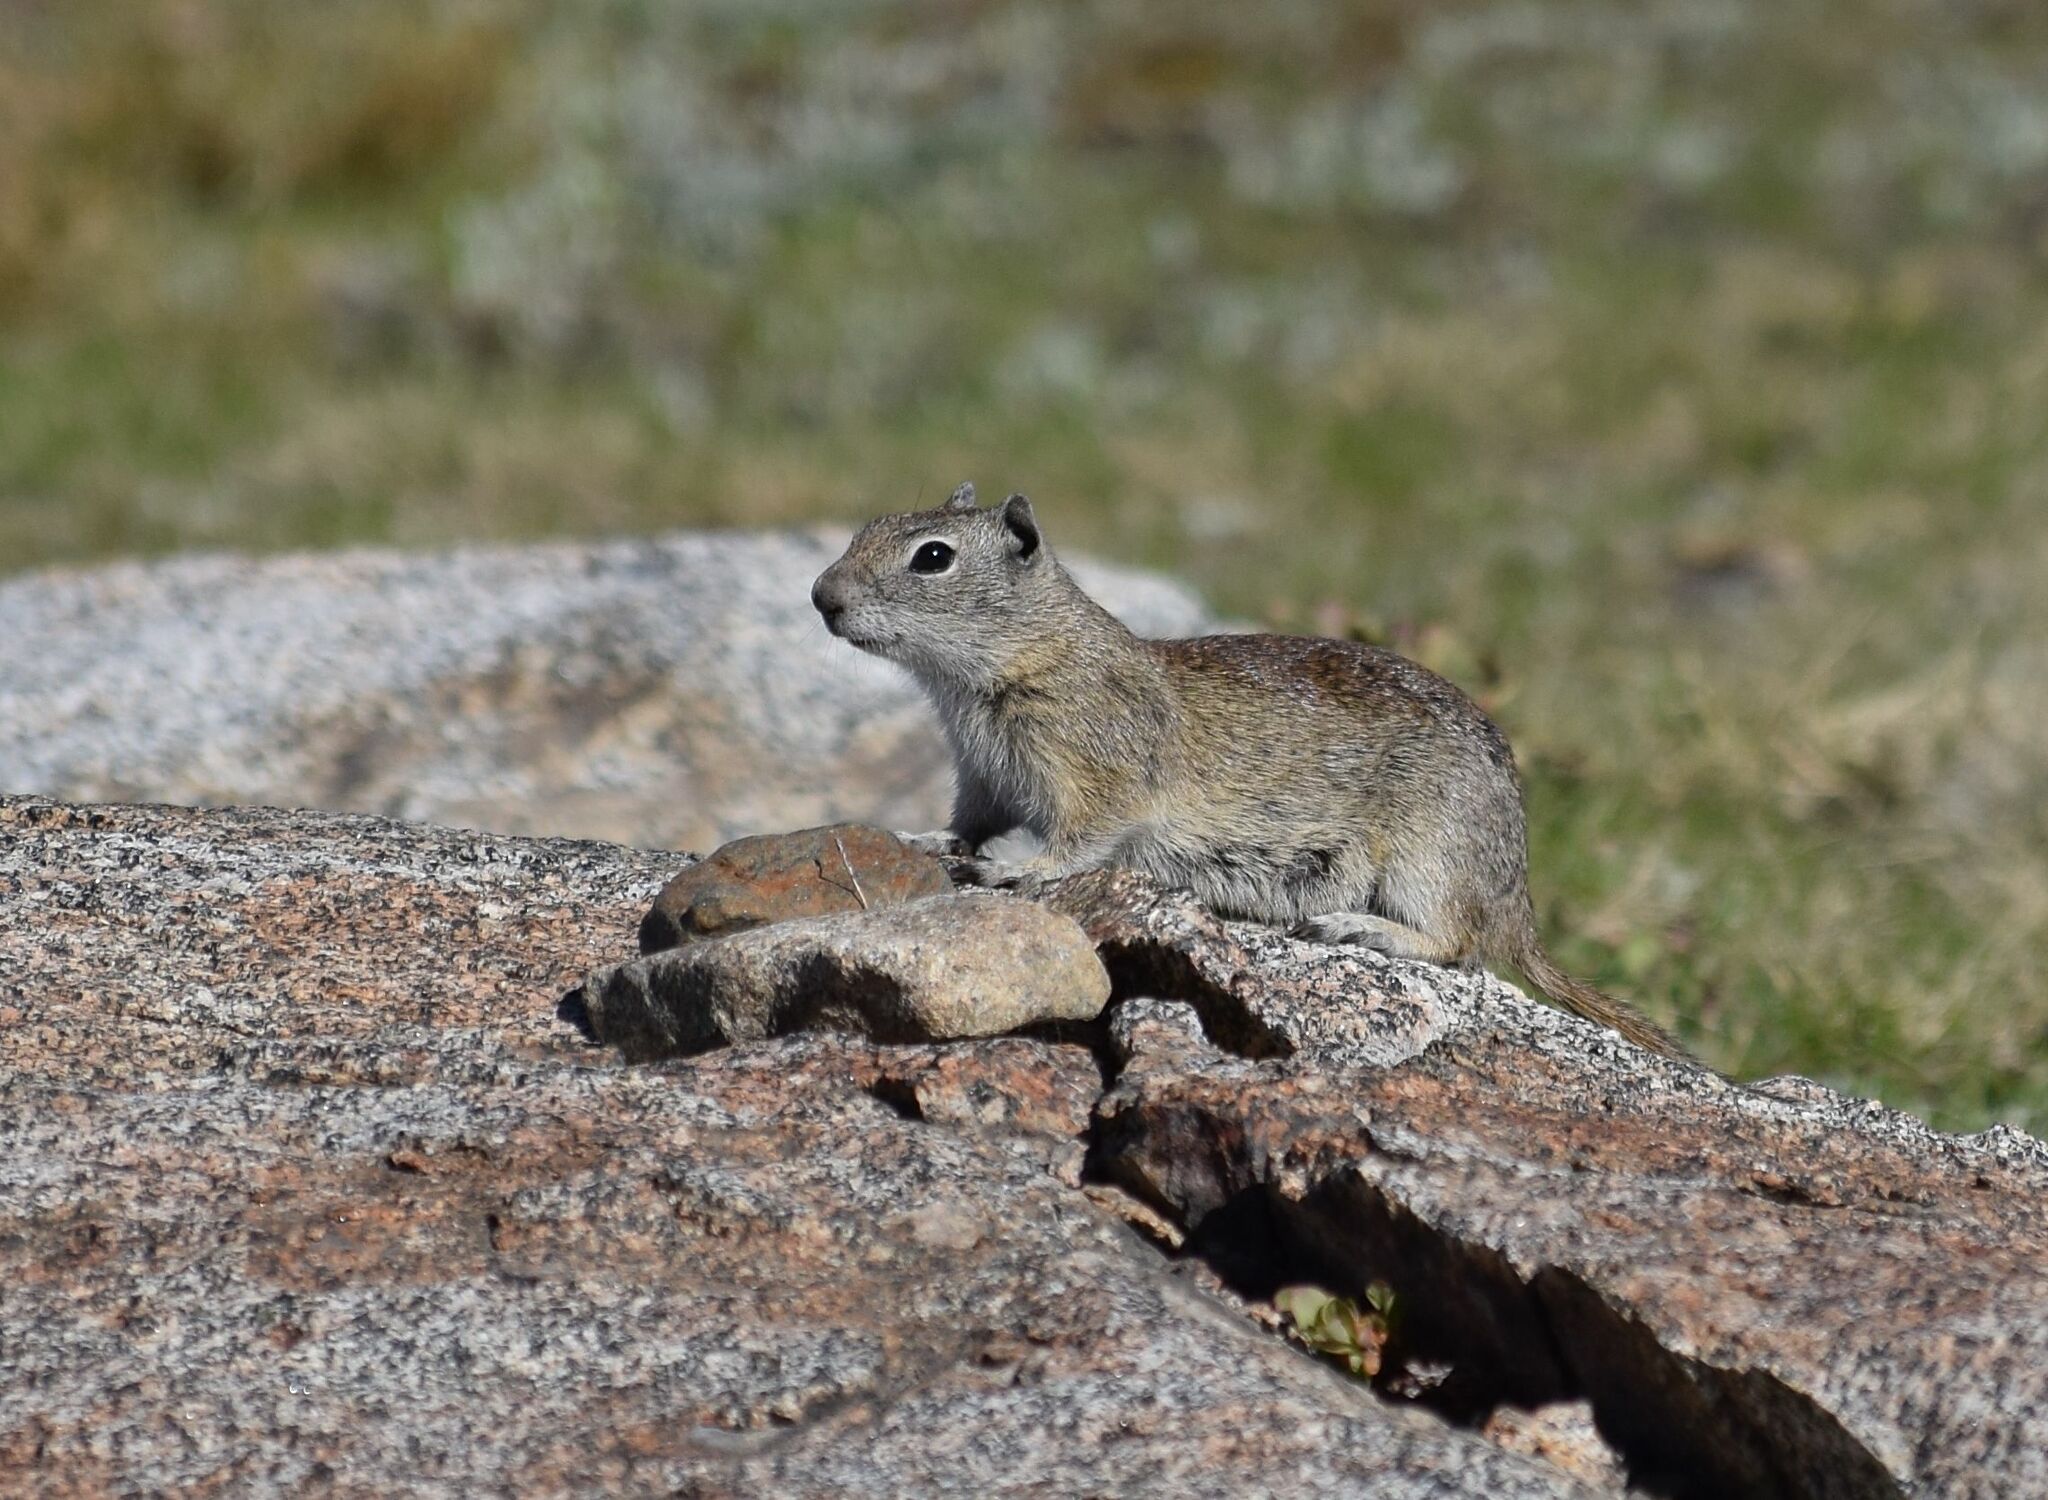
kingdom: Animalia
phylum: Chordata
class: Mammalia
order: Rodentia
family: Sciuridae
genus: Urocitellus
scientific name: Urocitellus beldingi
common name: Belding's ground squirrel
